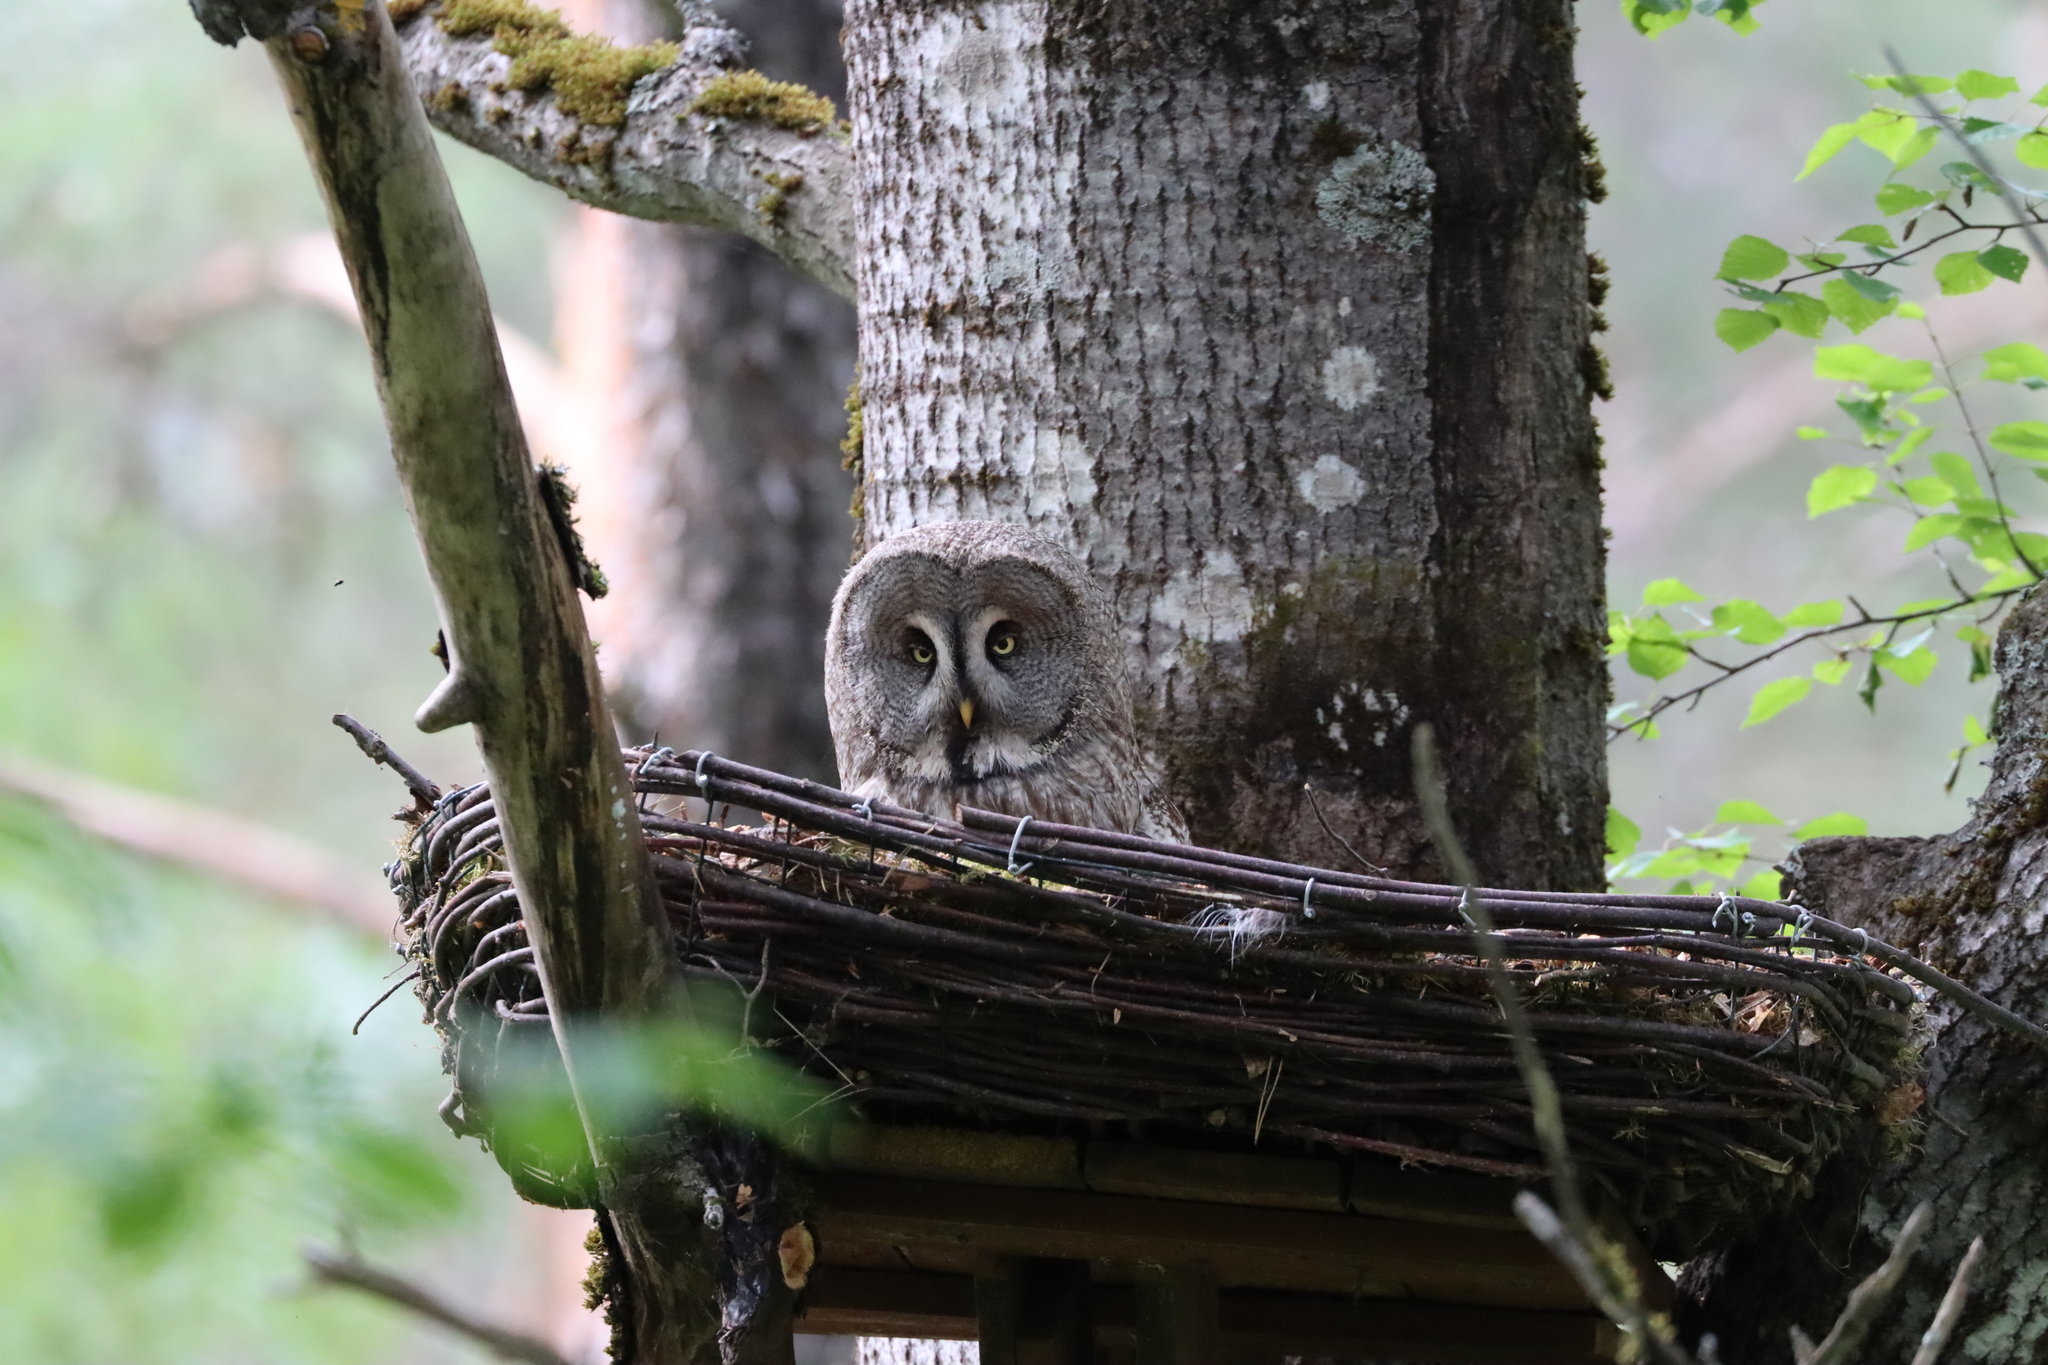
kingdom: Animalia
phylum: Chordata
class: Aves
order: Strigiformes
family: Strigidae
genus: Strix
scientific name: Strix nebulosa
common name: Great grey owl
